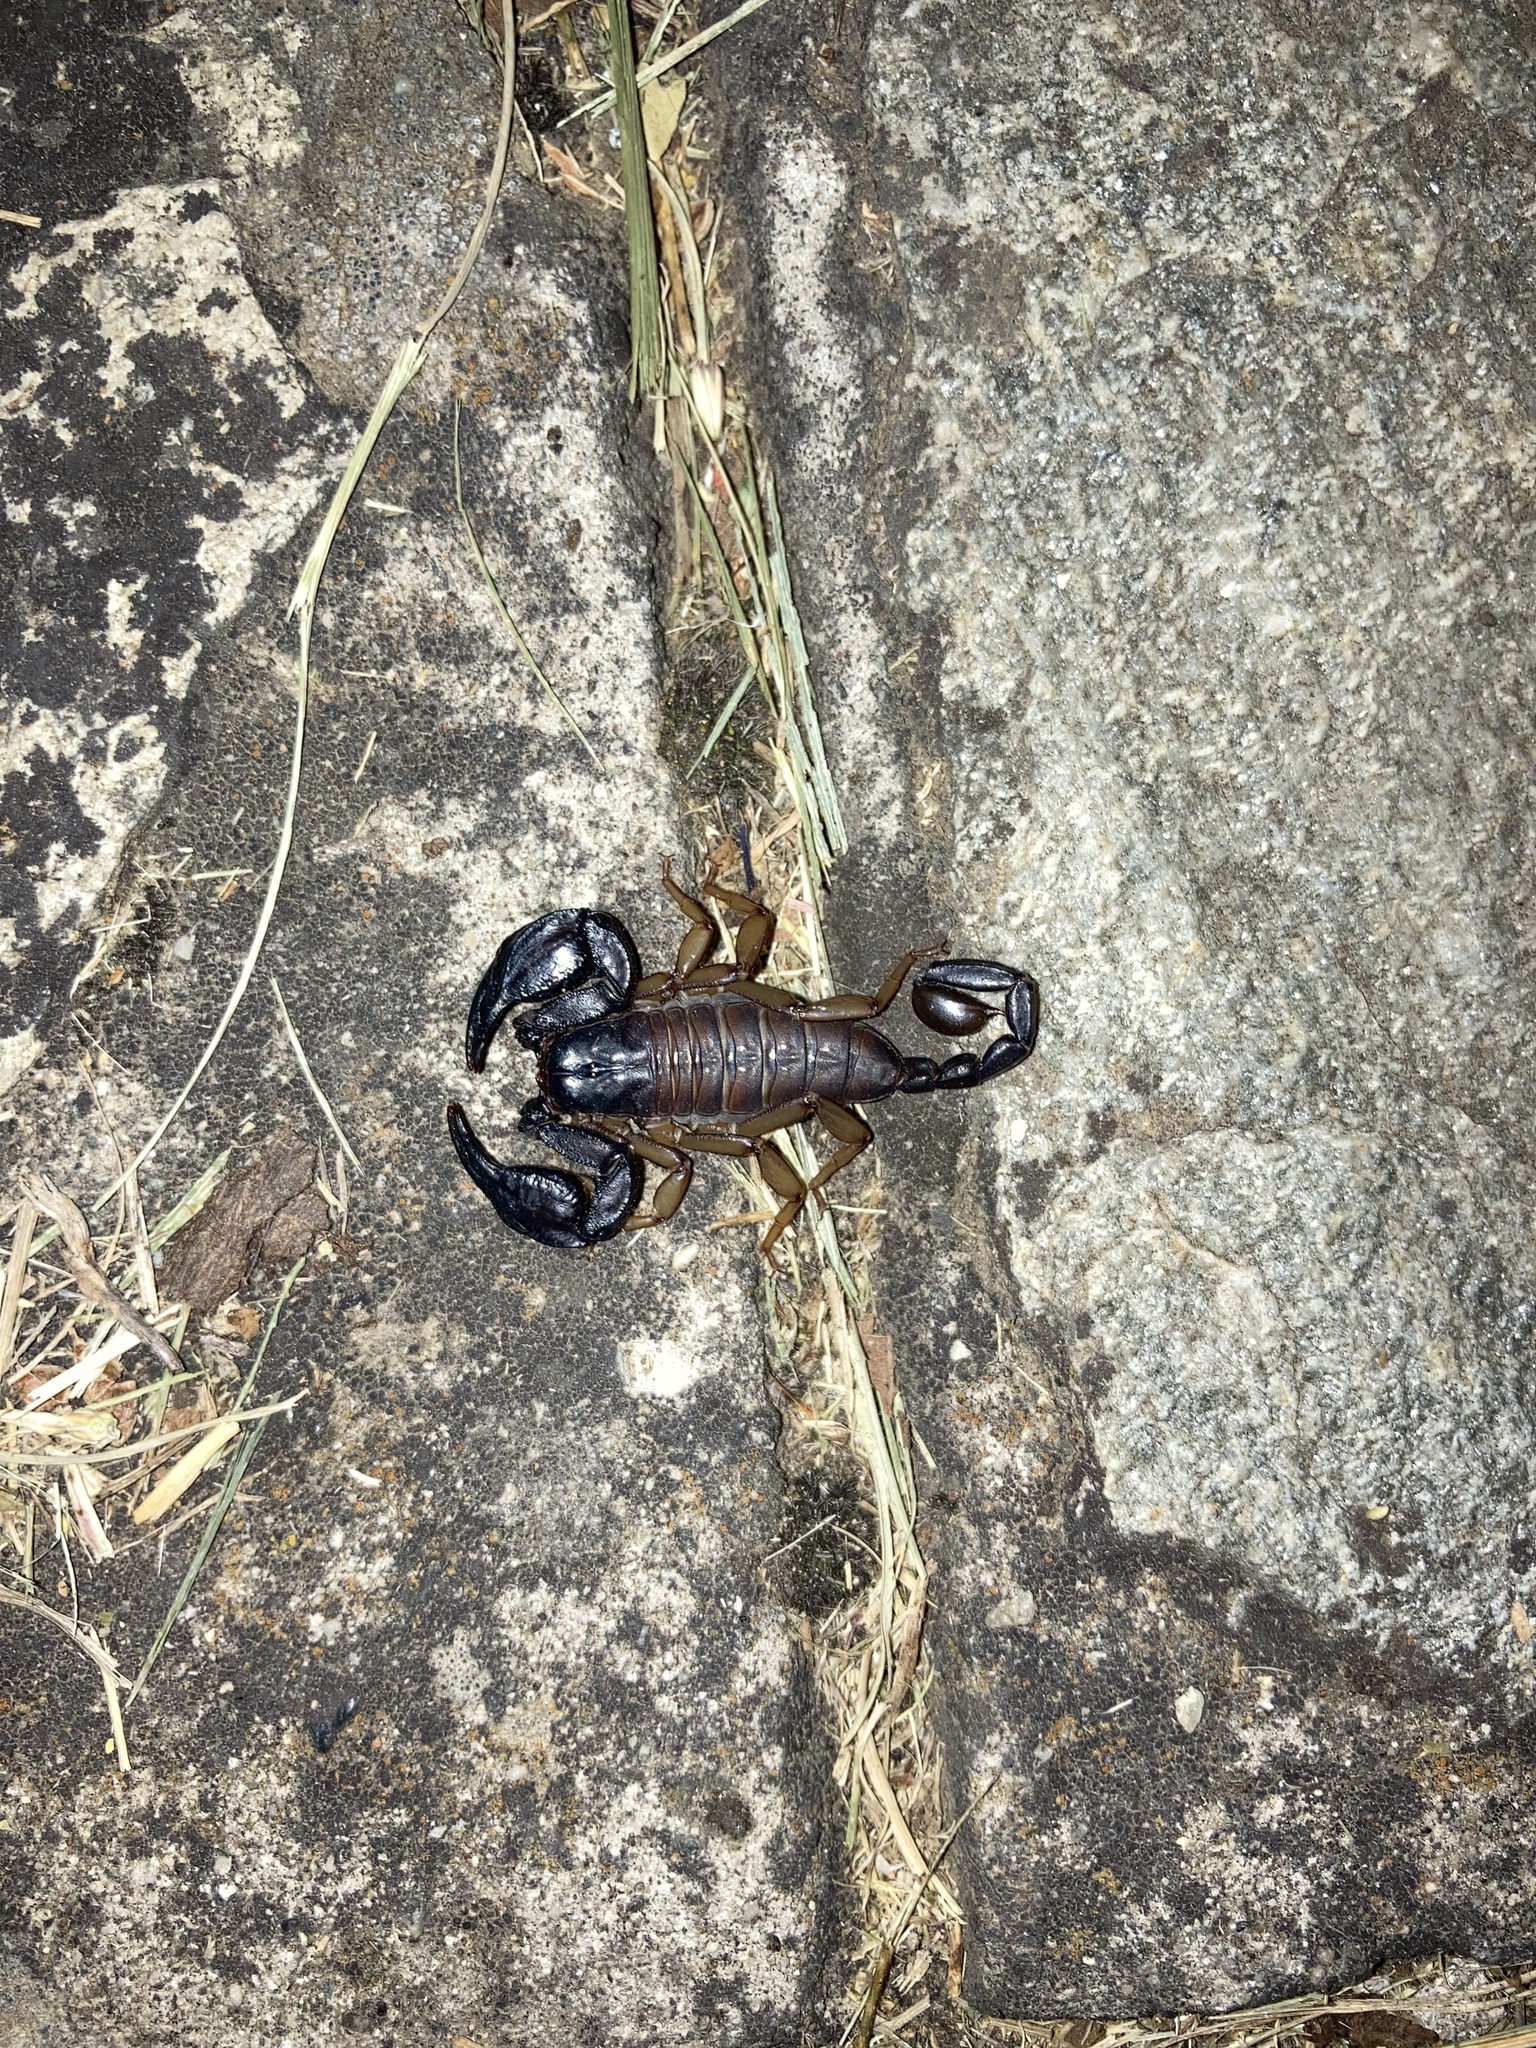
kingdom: Animalia
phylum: Arthropoda
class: Arachnida
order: Scorpiones
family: Euscorpiidae
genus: Euscorpius
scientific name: Euscorpius
